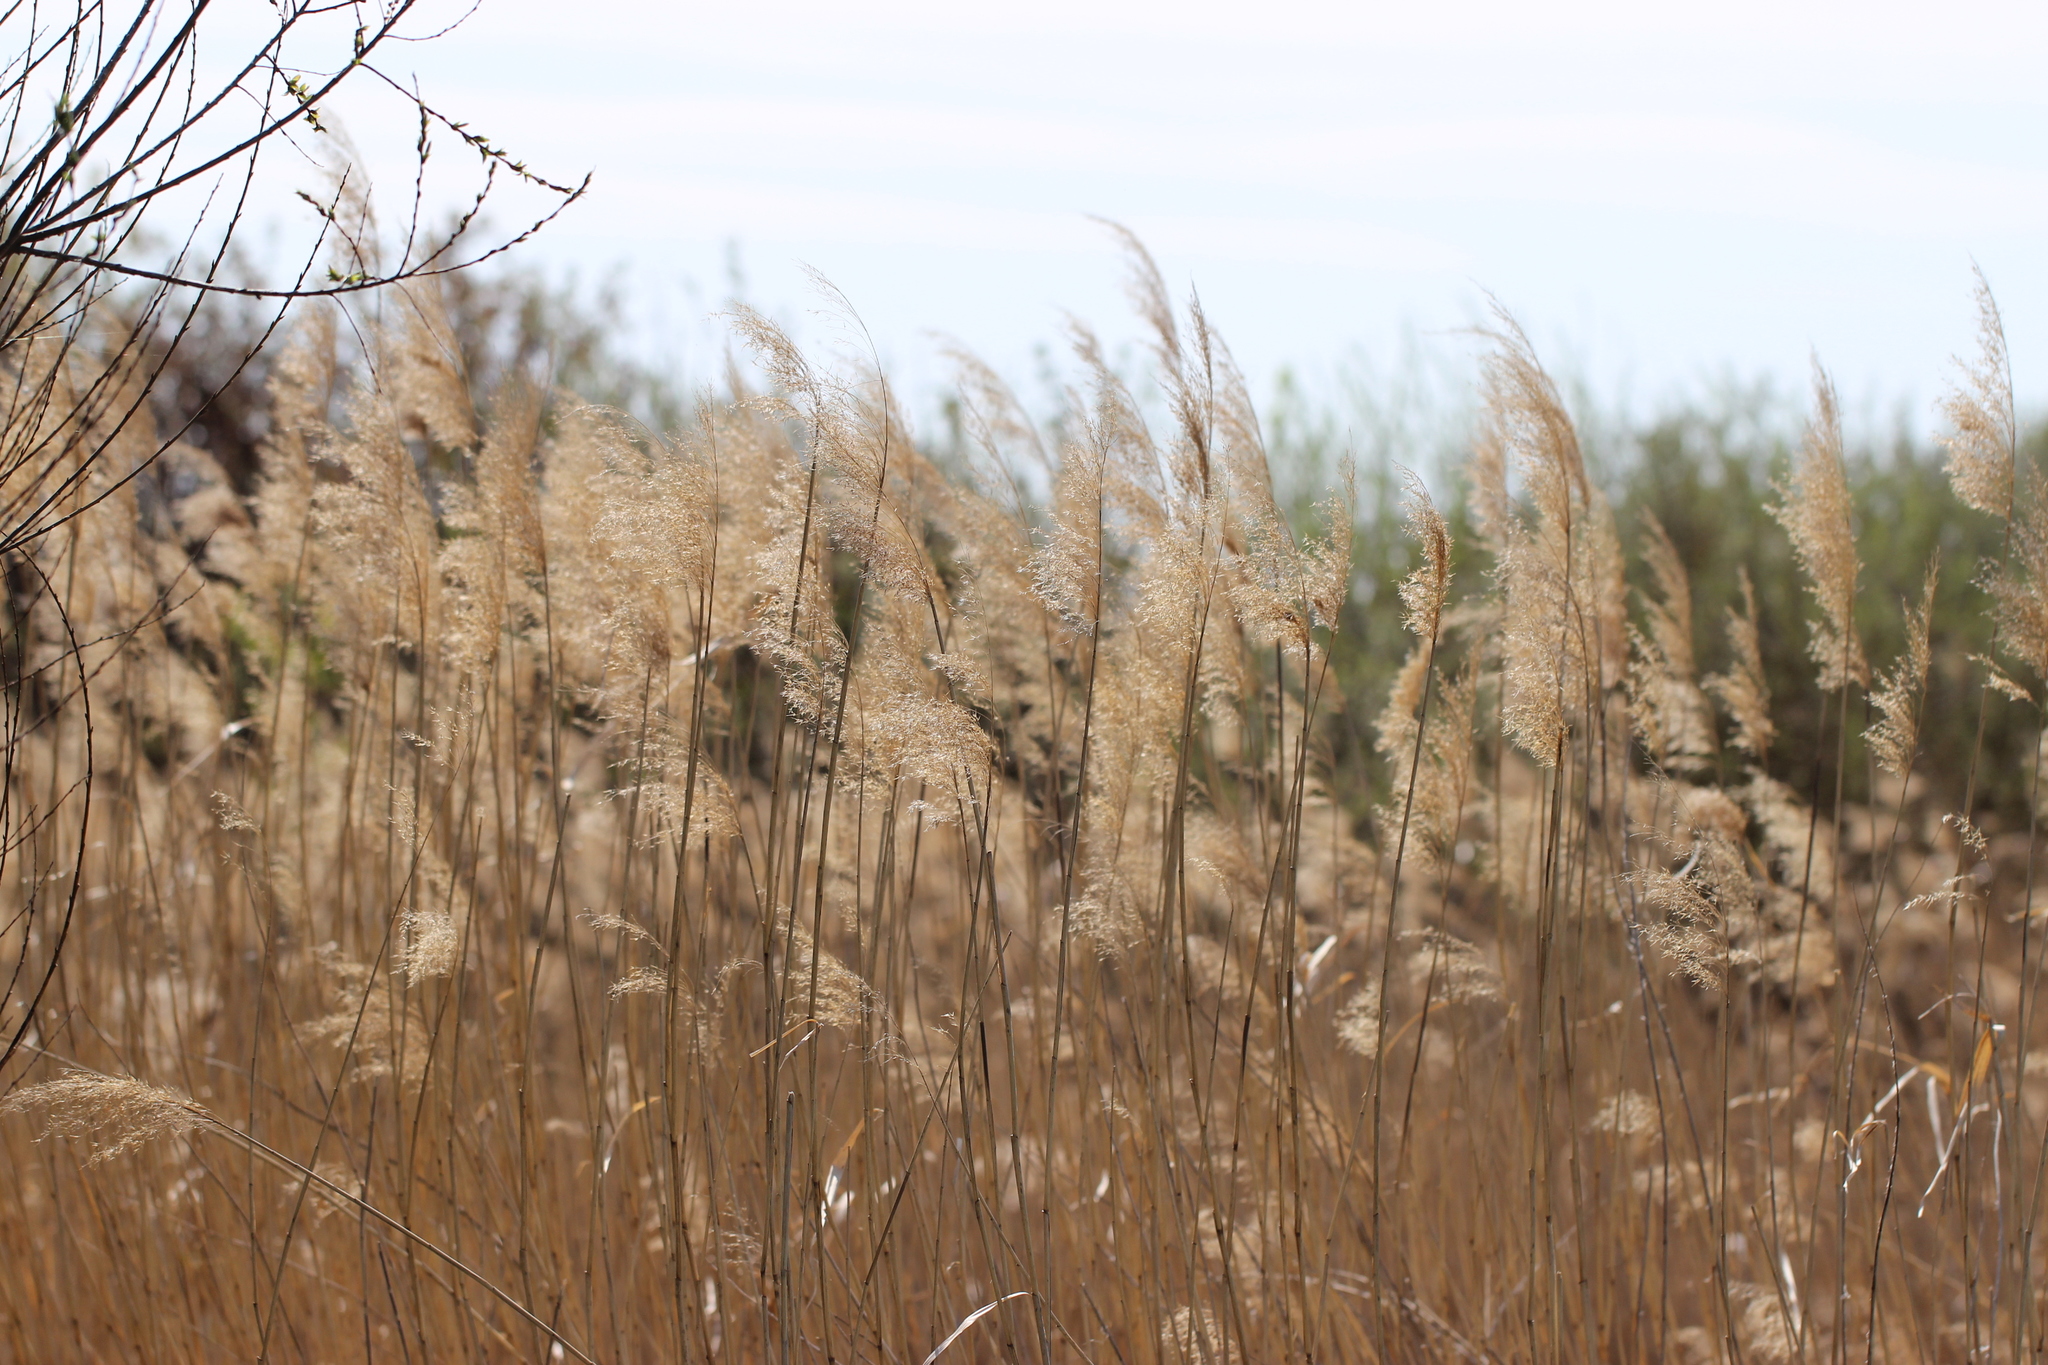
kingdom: Plantae
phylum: Tracheophyta
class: Liliopsida
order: Poales
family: Poaceae
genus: Phragmites
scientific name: Phragmites australis
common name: Common reed
